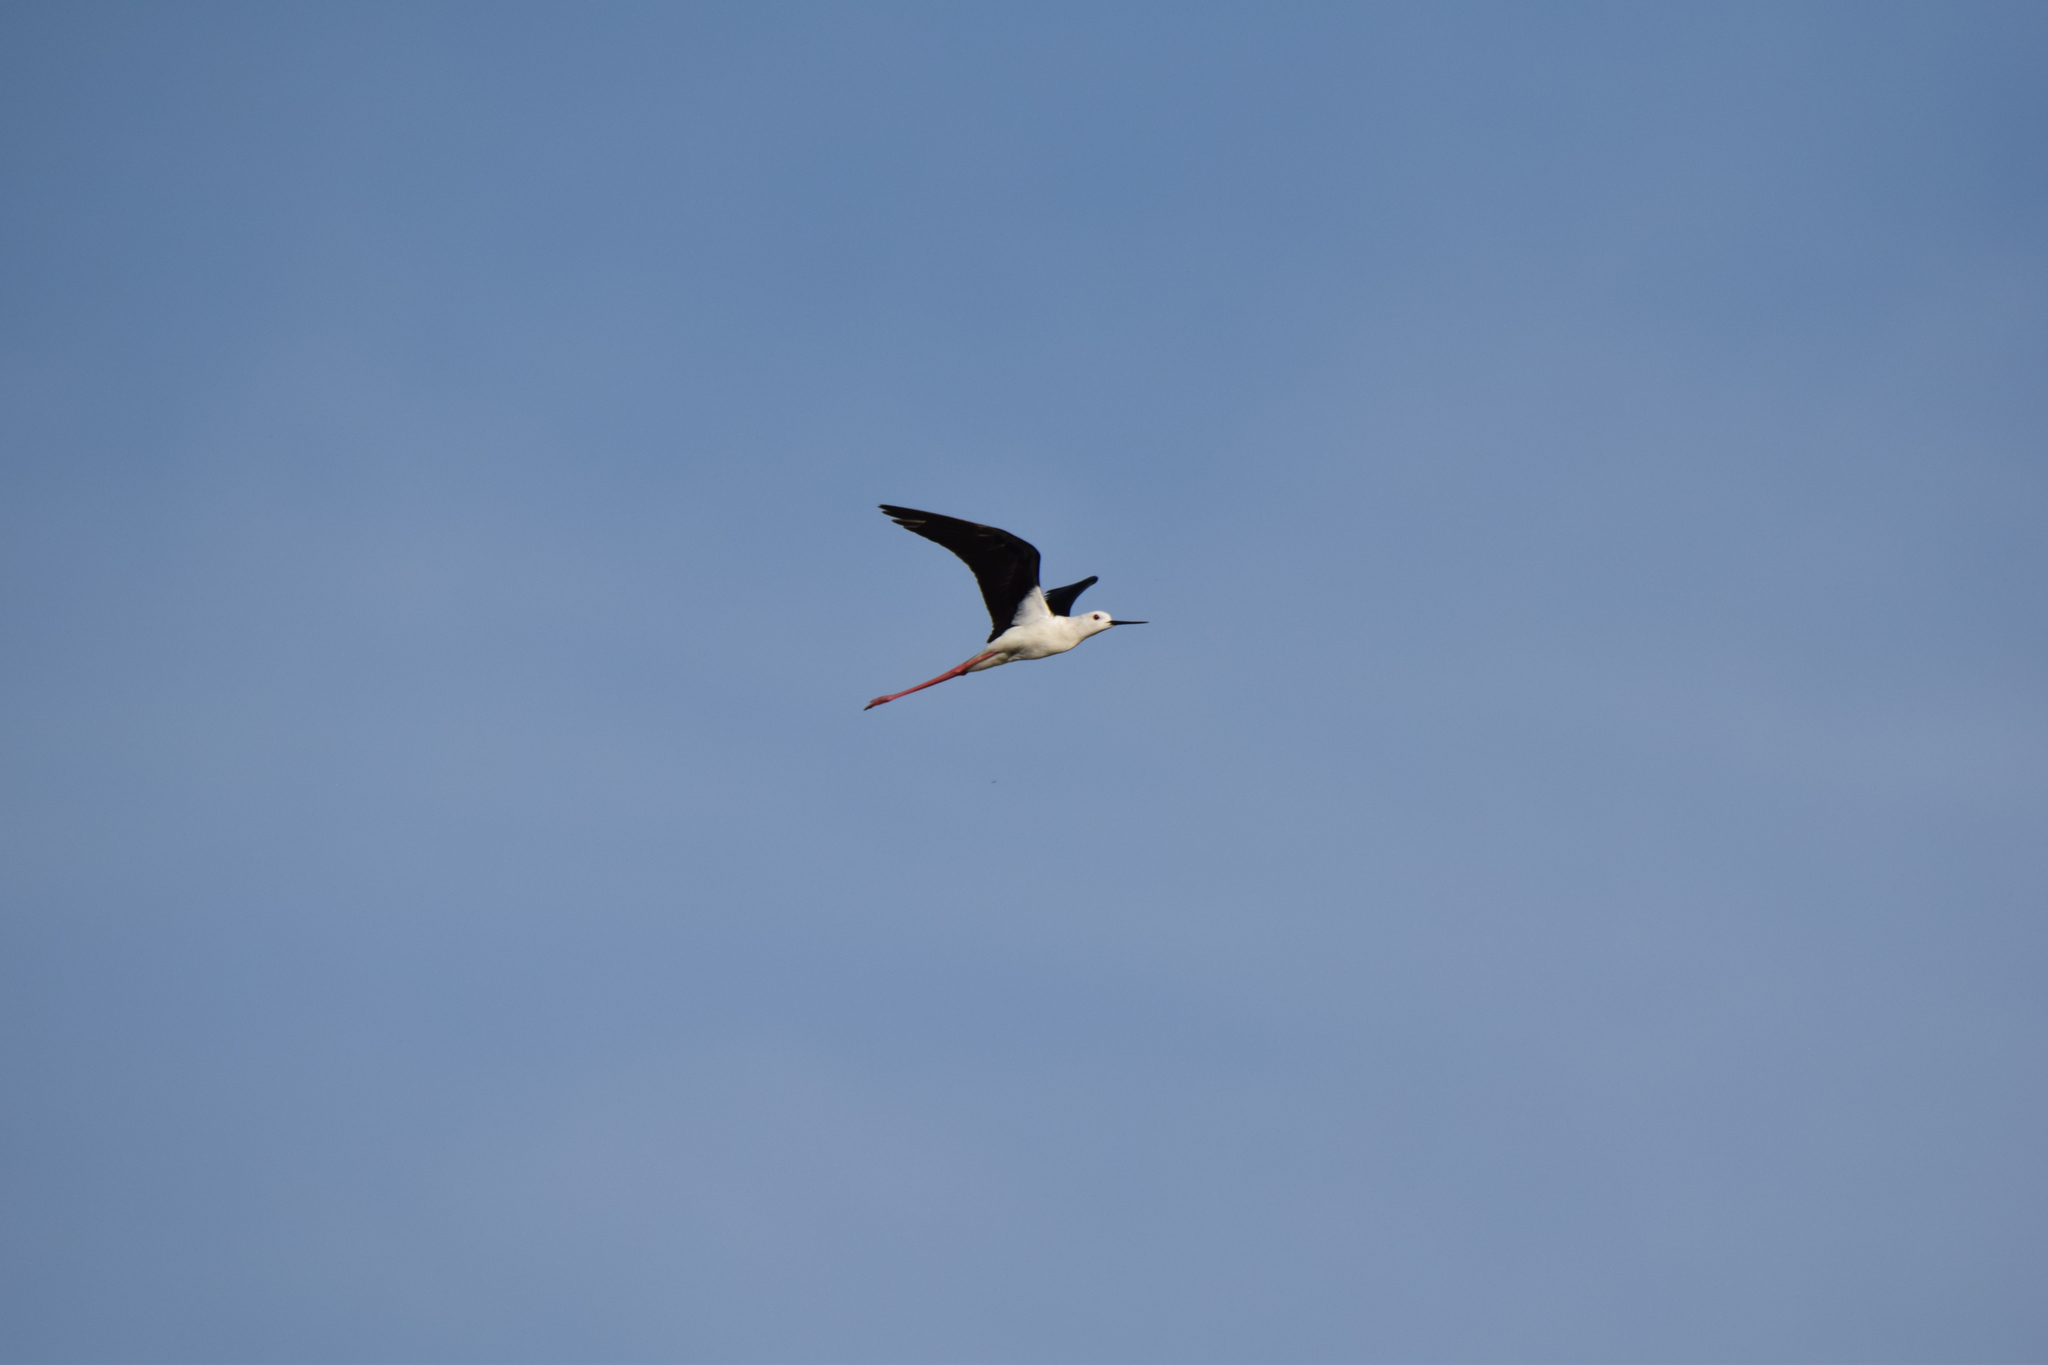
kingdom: Animalia
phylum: Chordata
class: Aves
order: Charadriiformes
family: Recurvirostridae
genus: Himantopus
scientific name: Himantopus himantopus
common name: Black-winged stilt
